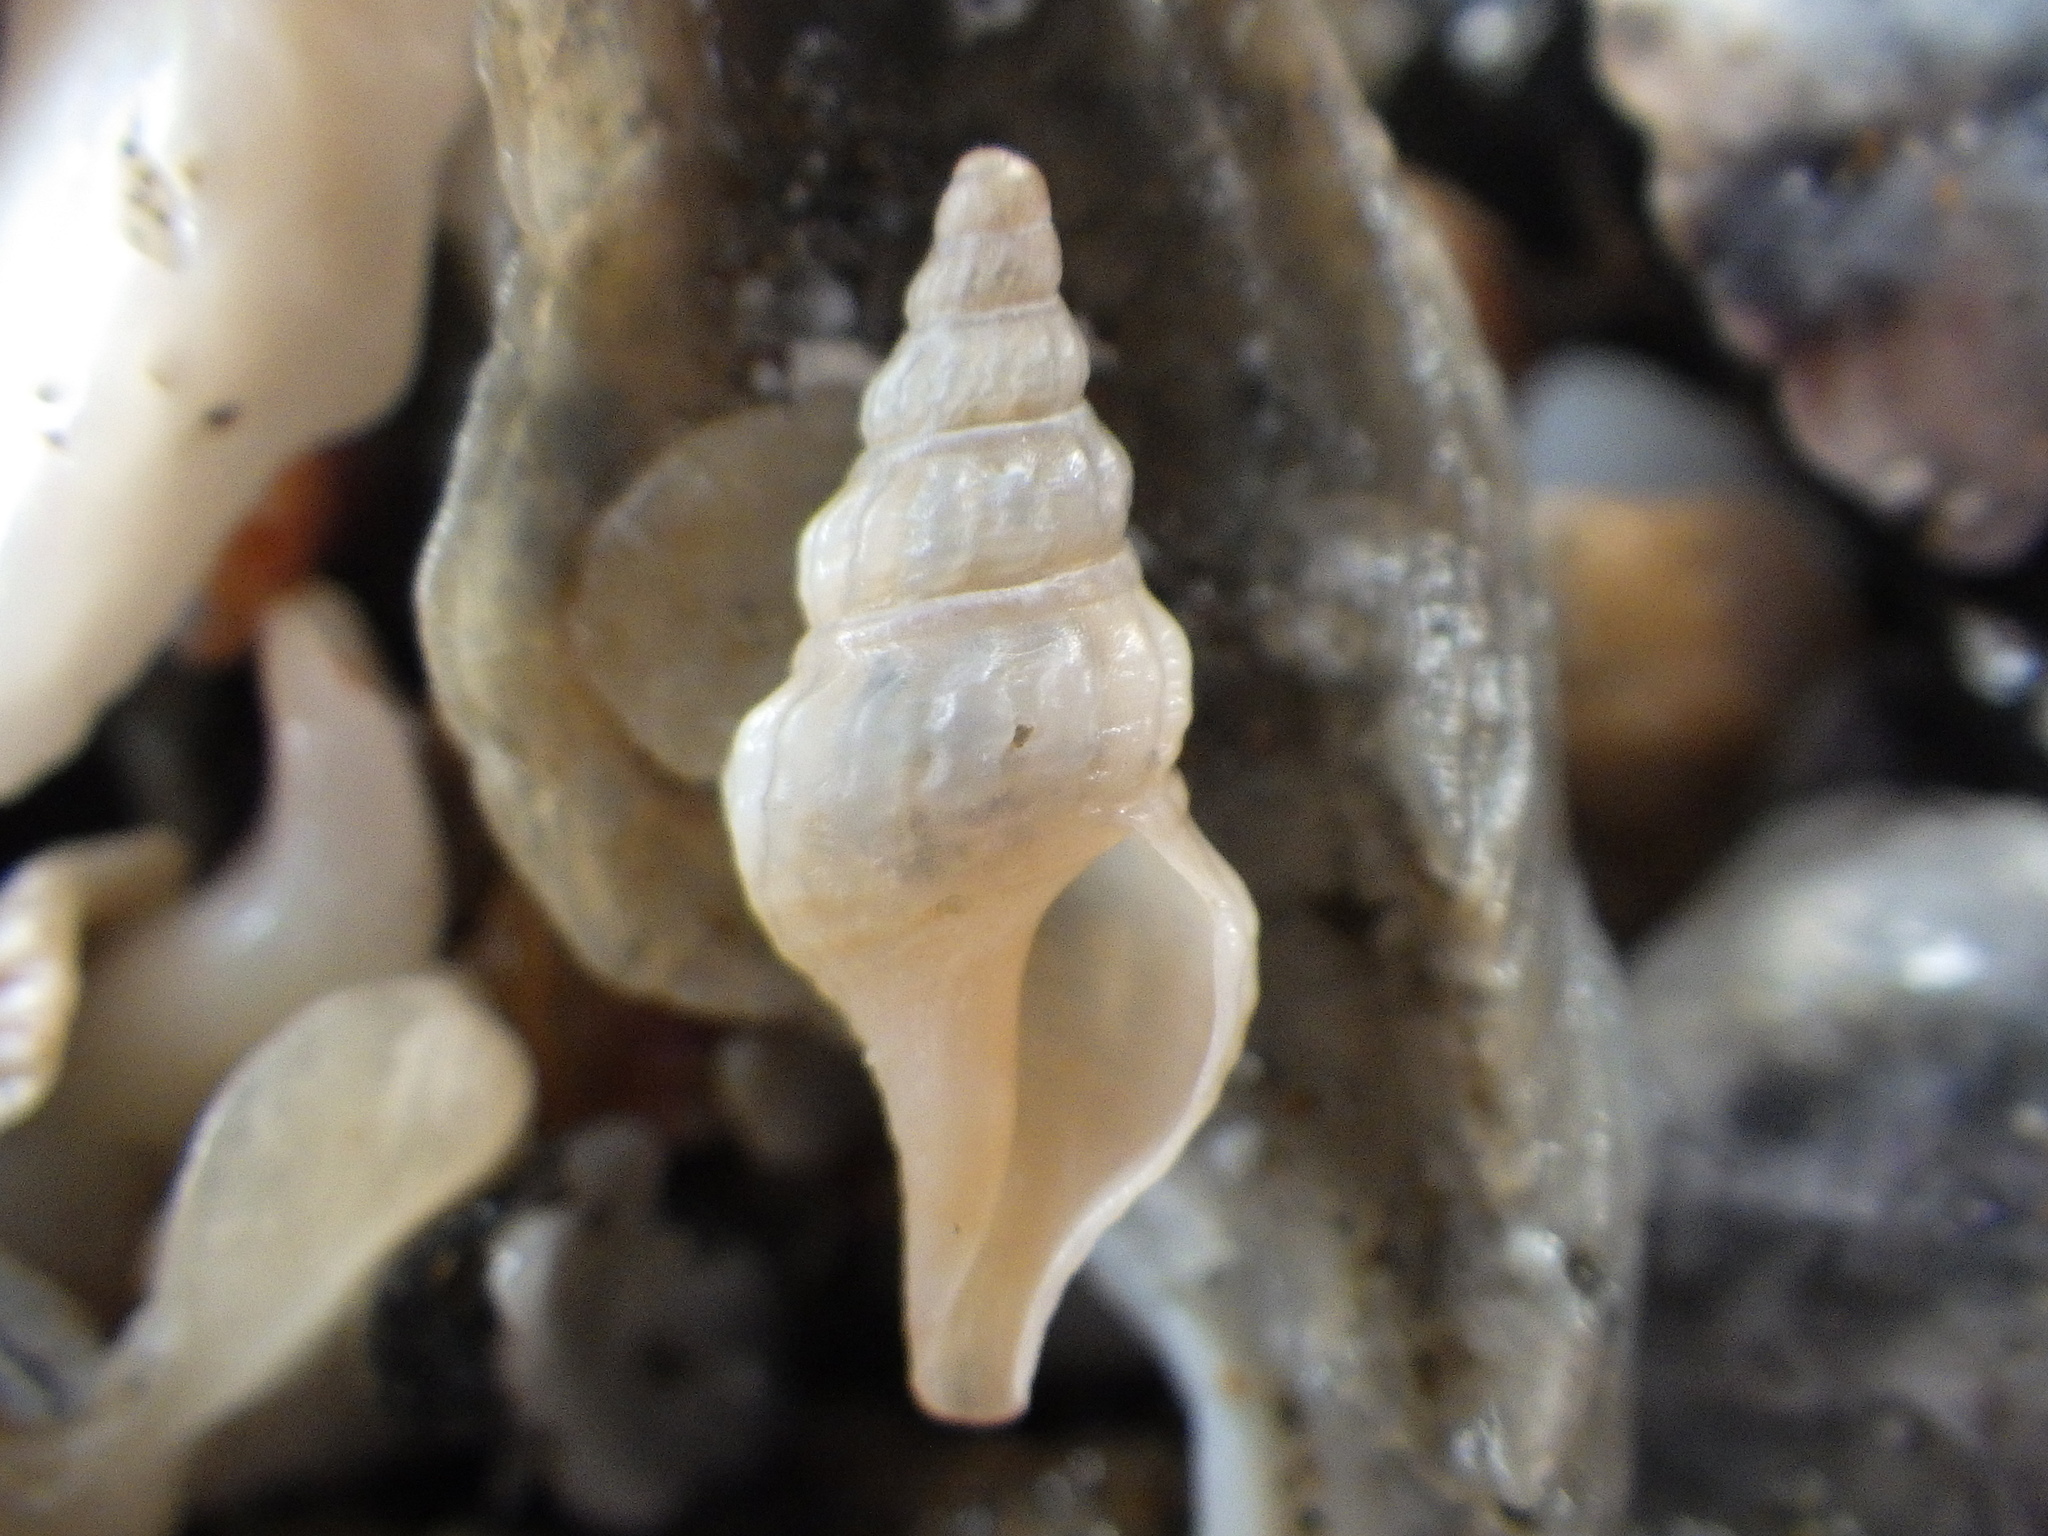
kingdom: Animalia
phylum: Mollusca
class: Gastropoda
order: Neogastropoda
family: Pseudomelatomidae
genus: Antimelatoma
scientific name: Antimelatoma buchanani
